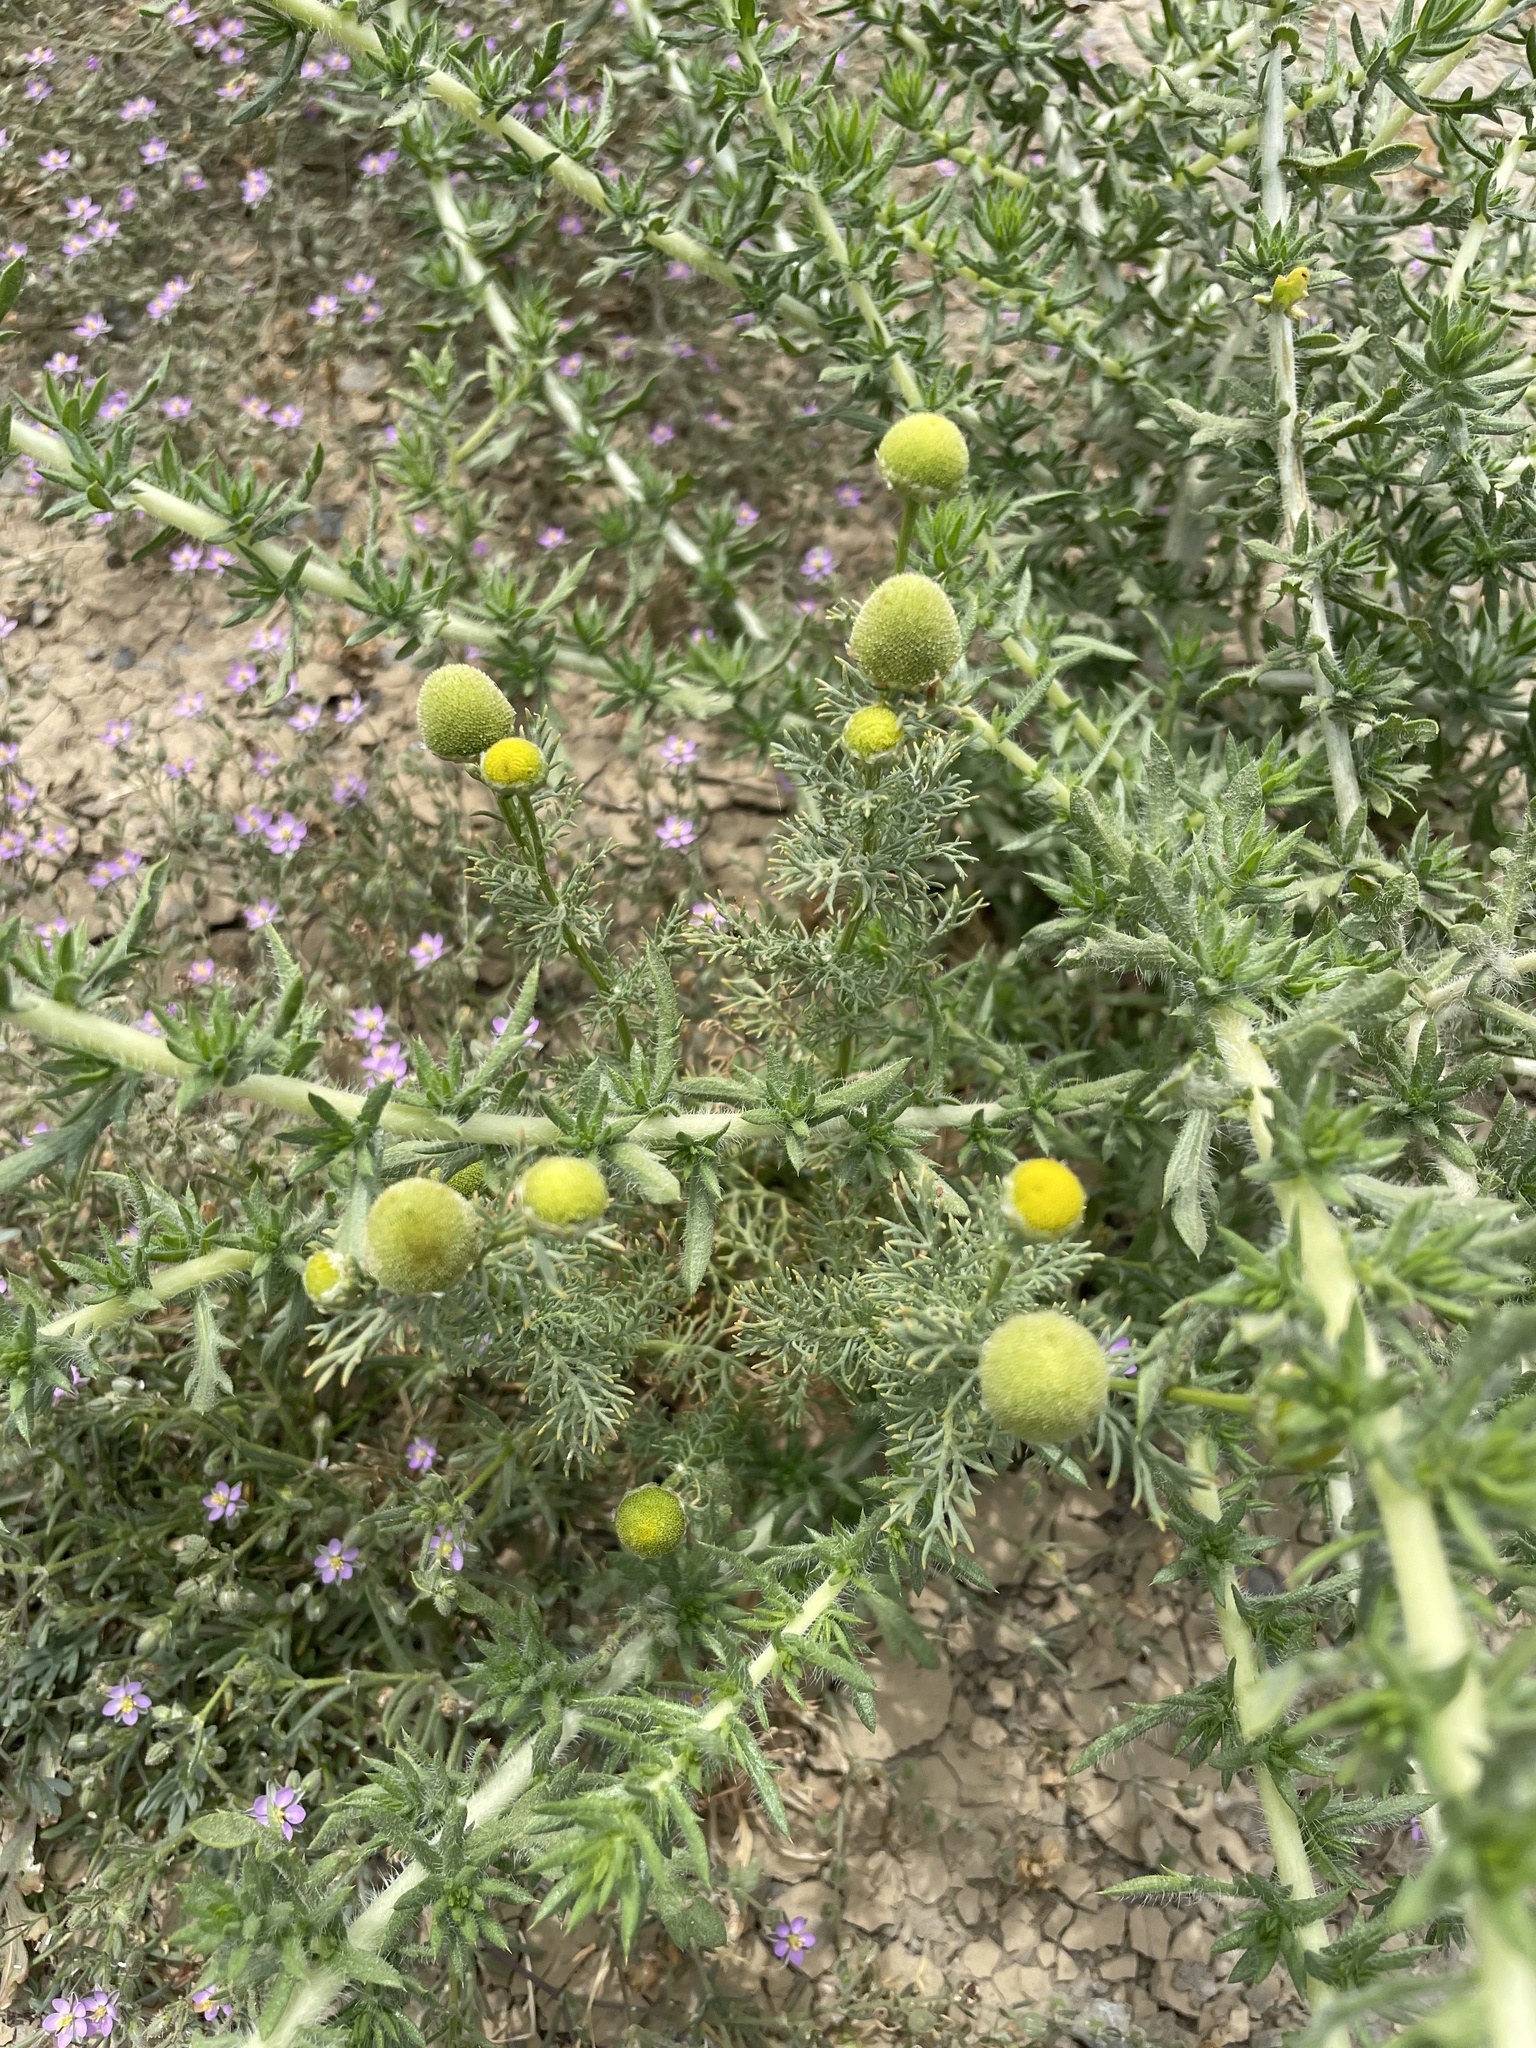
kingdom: Plantae
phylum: Tracheophyta
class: Magnoliopsida
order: Asterales
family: Asteraceae
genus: Matricaria
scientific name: Matricaria discoidea
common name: Disc mayweed
